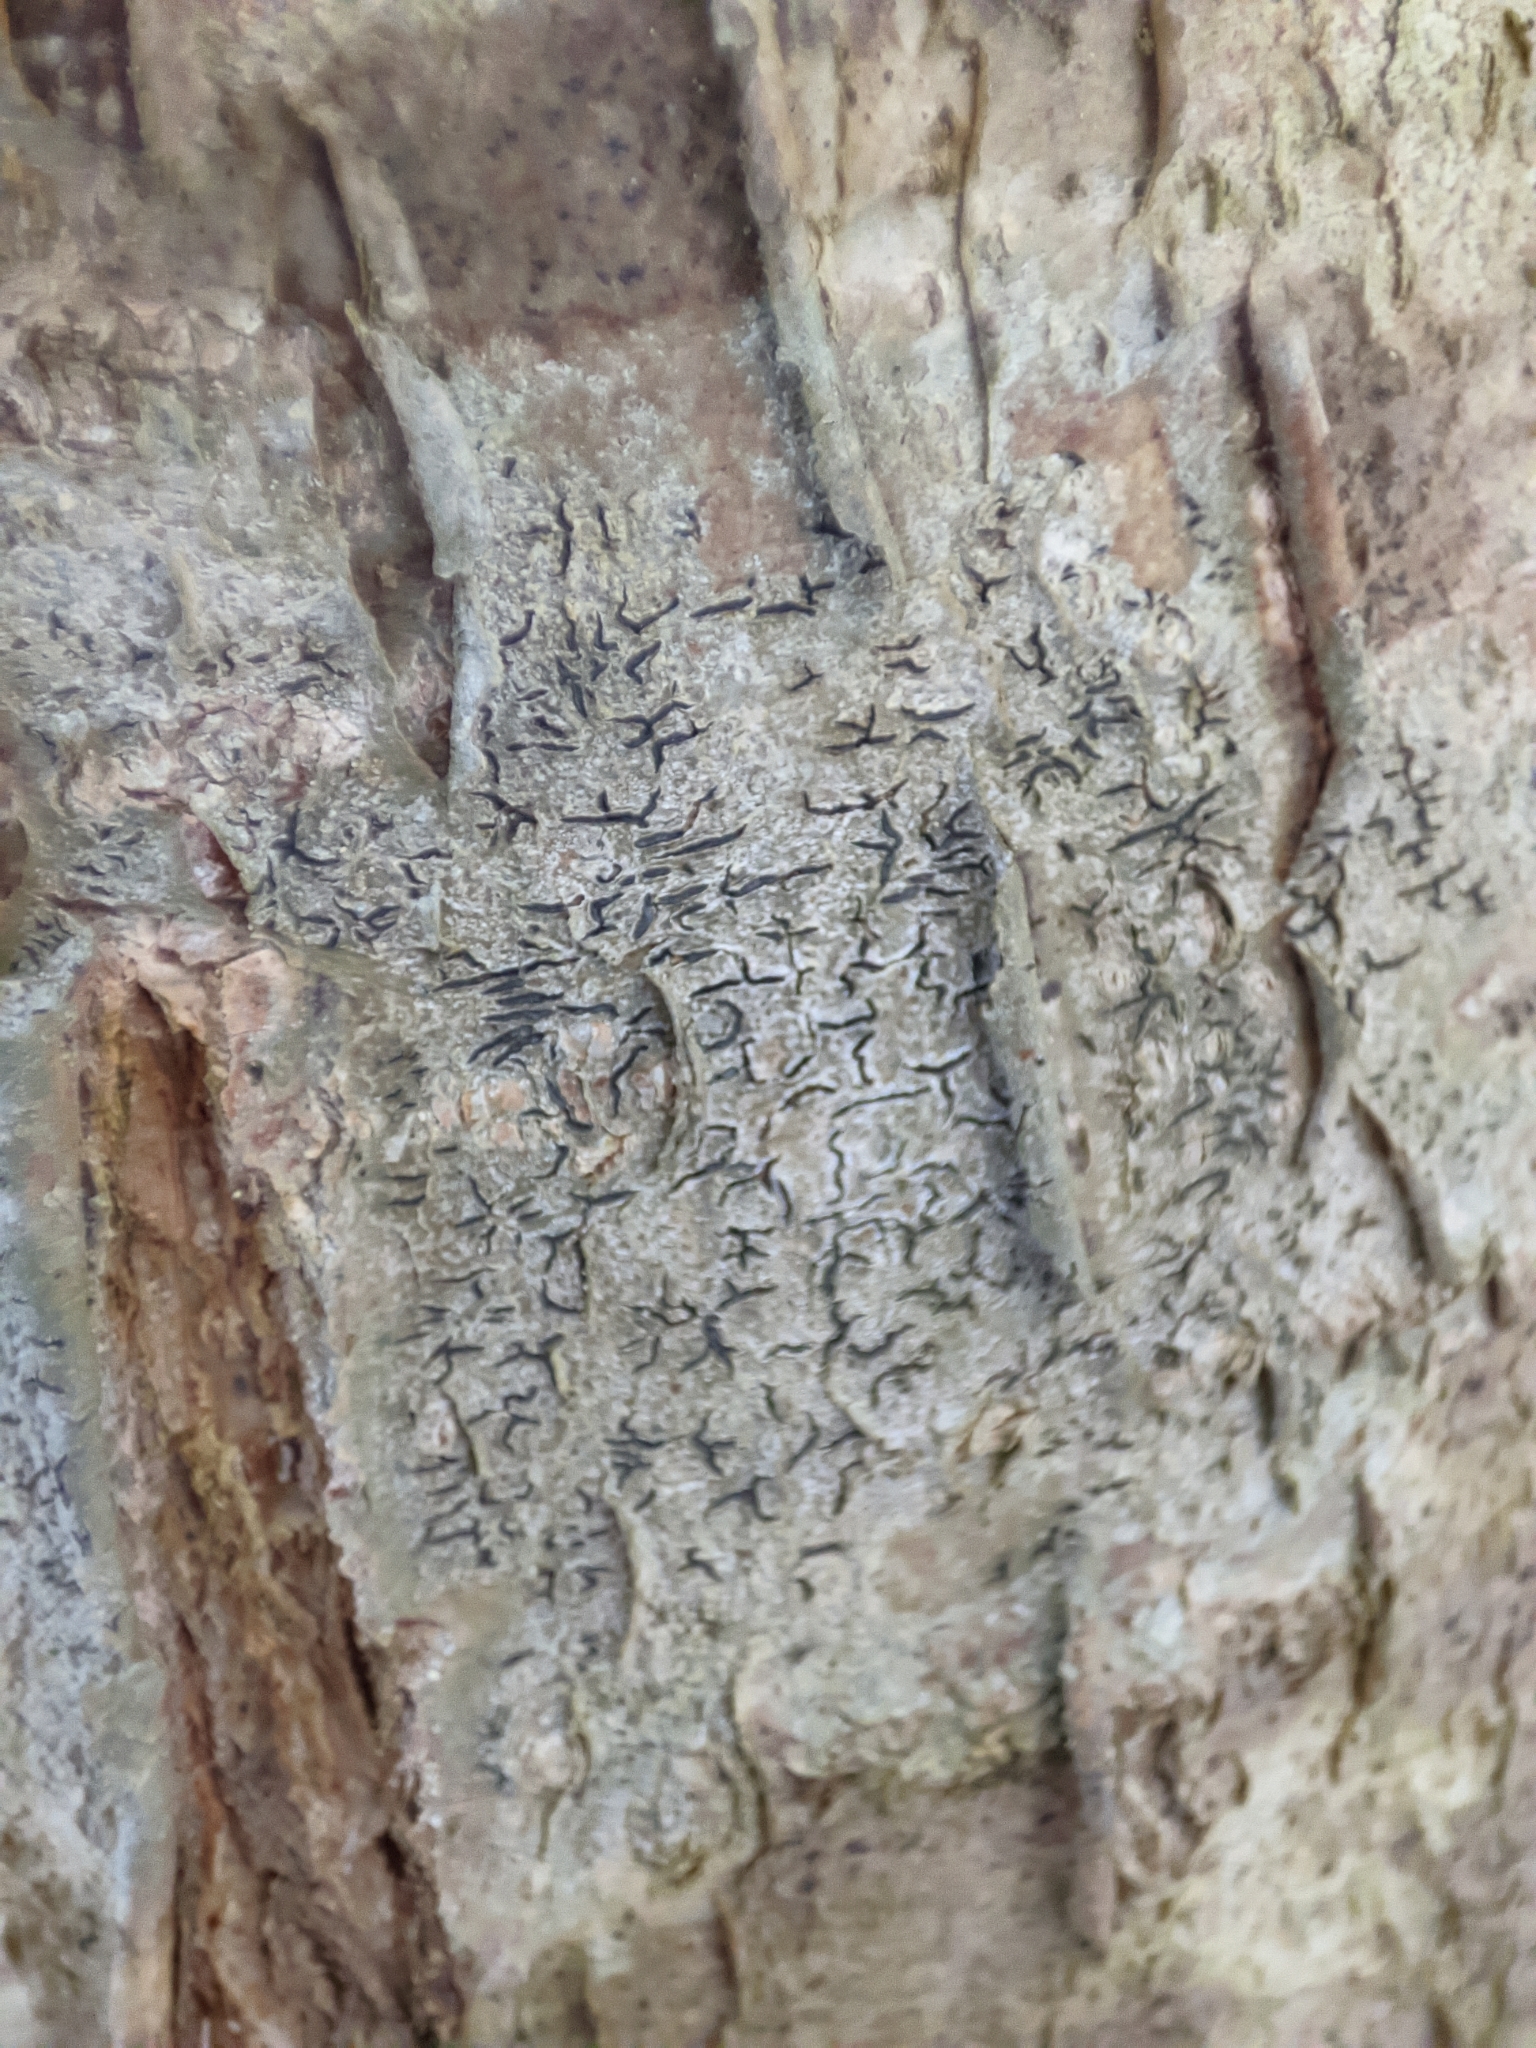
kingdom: Fungi
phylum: Ascomycota
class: Lecanoromycetes
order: Ostropales
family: Graphidaceae
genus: Graphis
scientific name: Graphis scripta
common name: Script lichen
